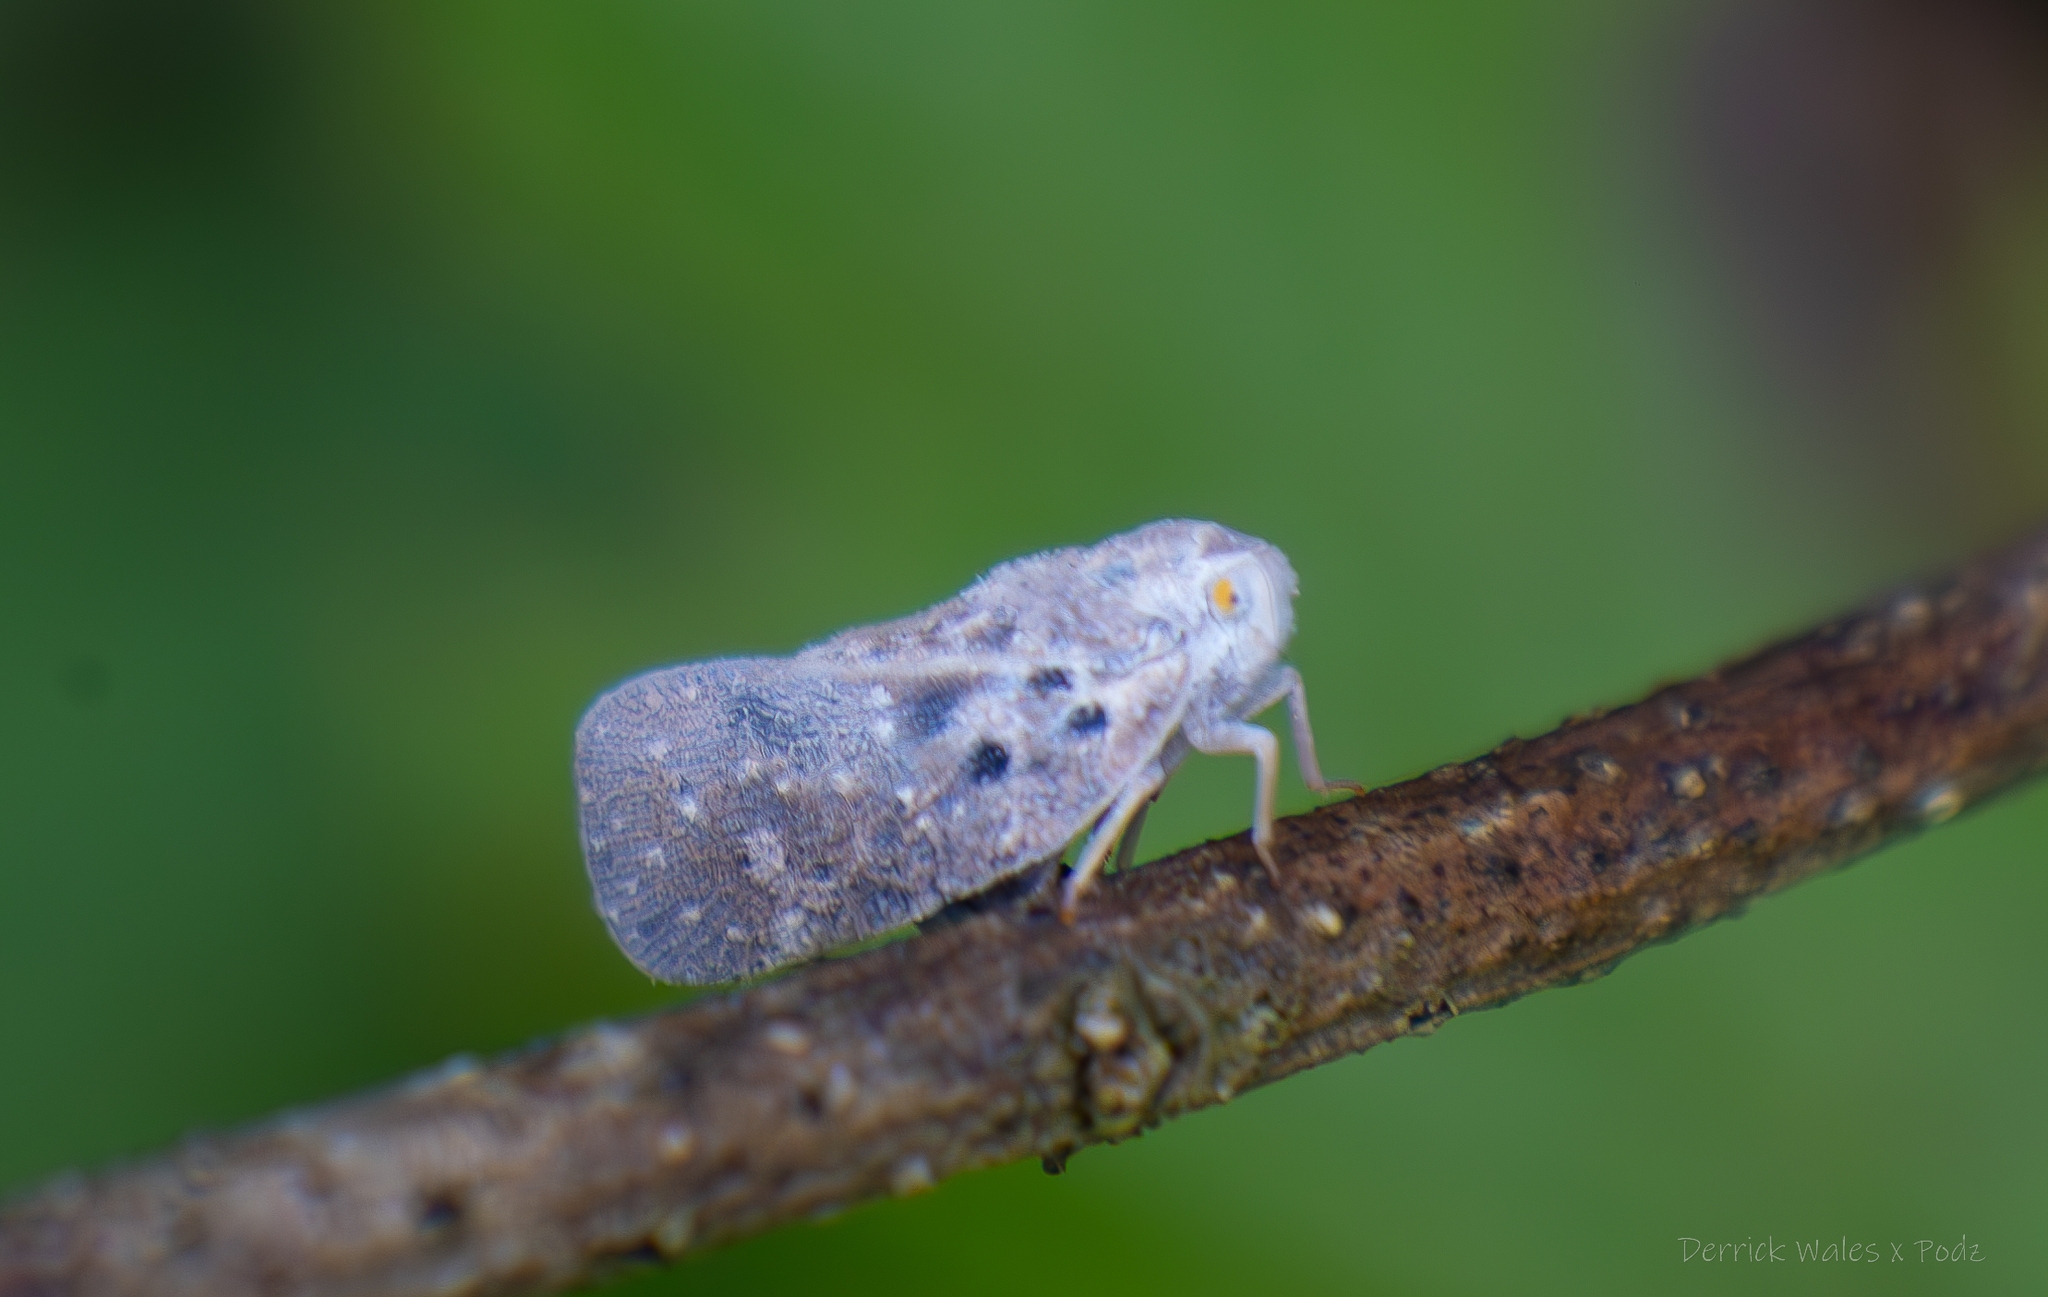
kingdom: Animalia
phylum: Arthropoda
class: Insecta
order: Hemiptera
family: Flatidae
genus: Metcalfa
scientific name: Metcalfa pruinosa
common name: Citrus flatid planthopper
